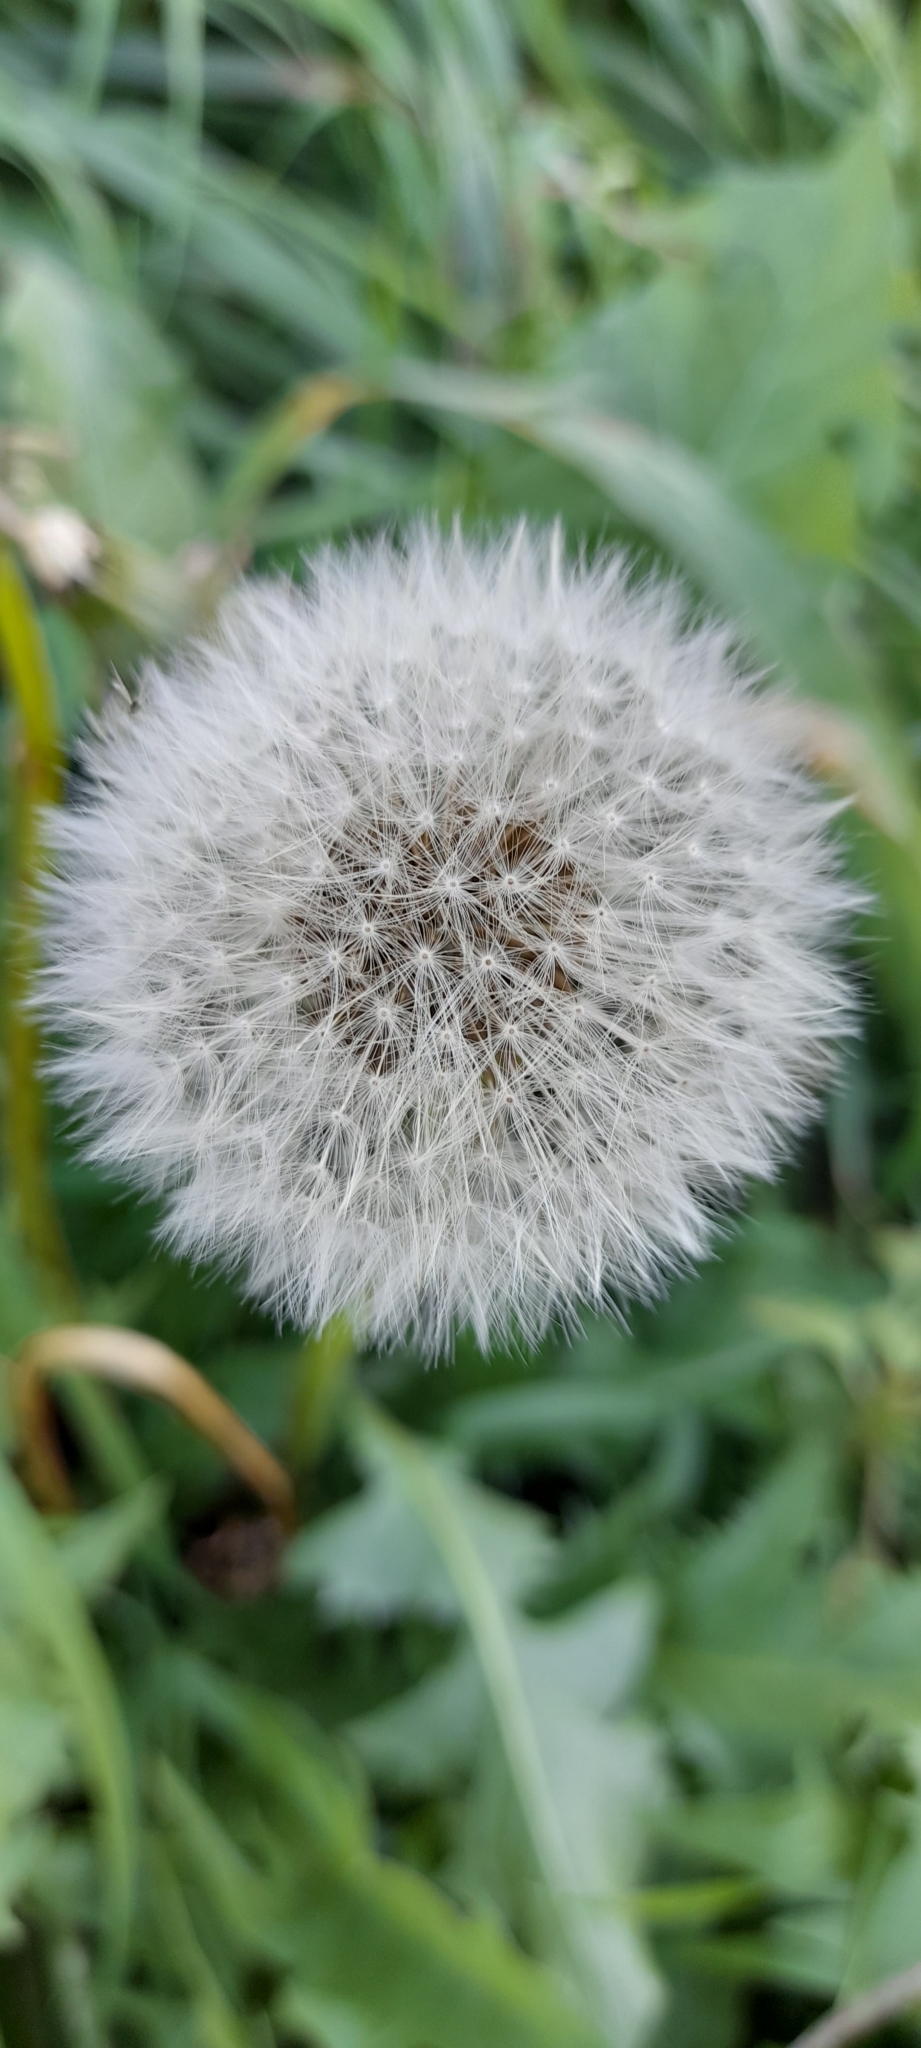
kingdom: Plantae
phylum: Tracheophyta
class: Magnoliopsida
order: Asterales
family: Asteraceae
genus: Taraxacum
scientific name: Taraxacum officinale
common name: Common dandelion
